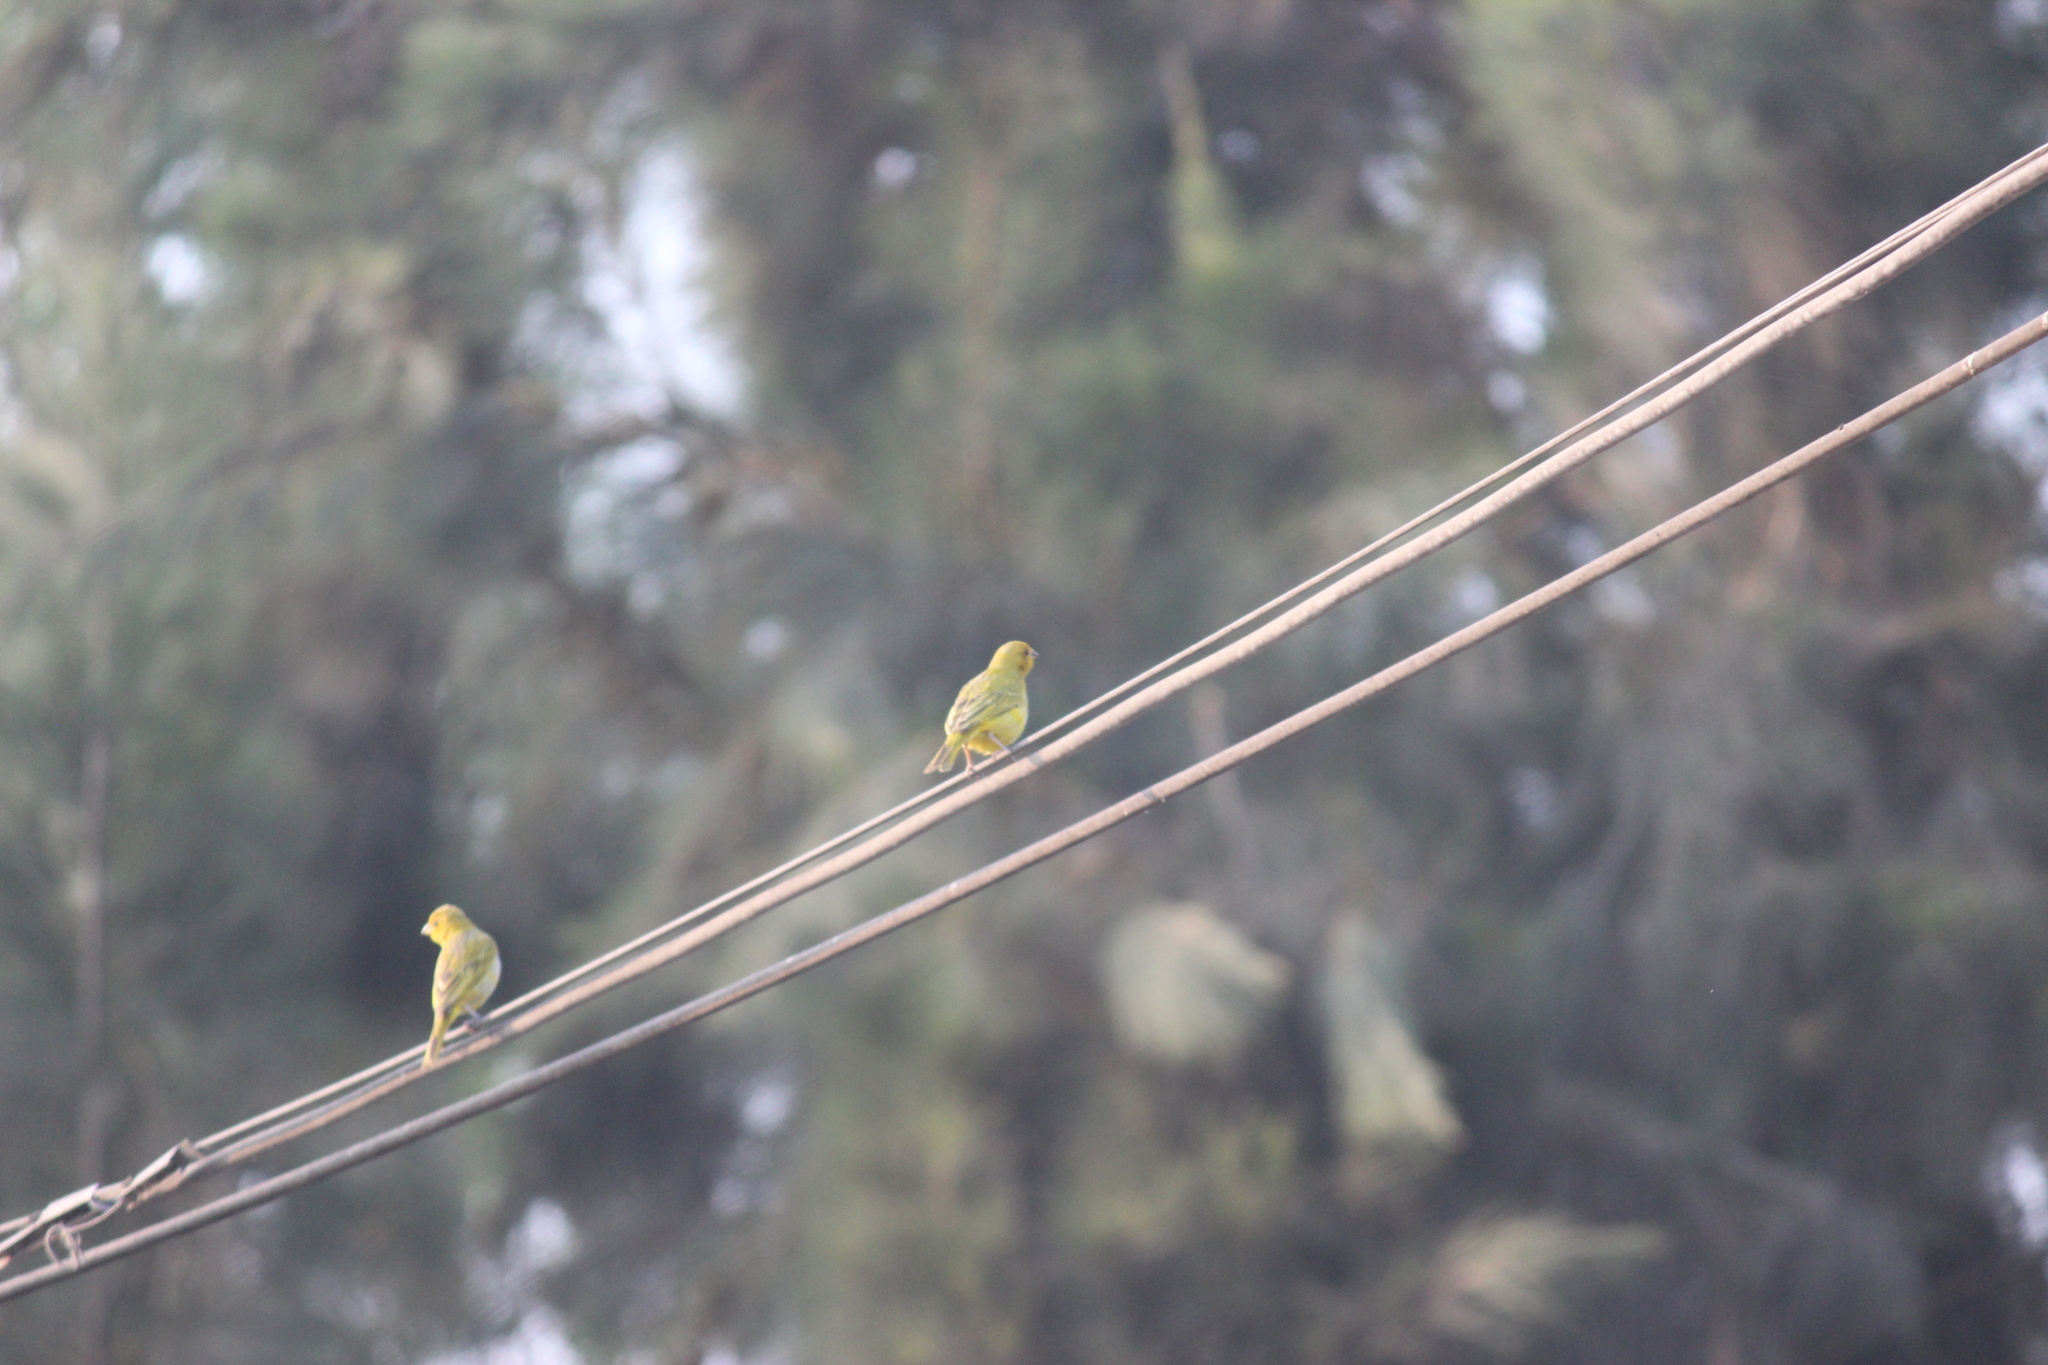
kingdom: Animalia
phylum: Chordata
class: Aves
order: Passeriformes
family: Thraupidae
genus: Sicalis
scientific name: Sicalis flaveola
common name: Saffron finch
